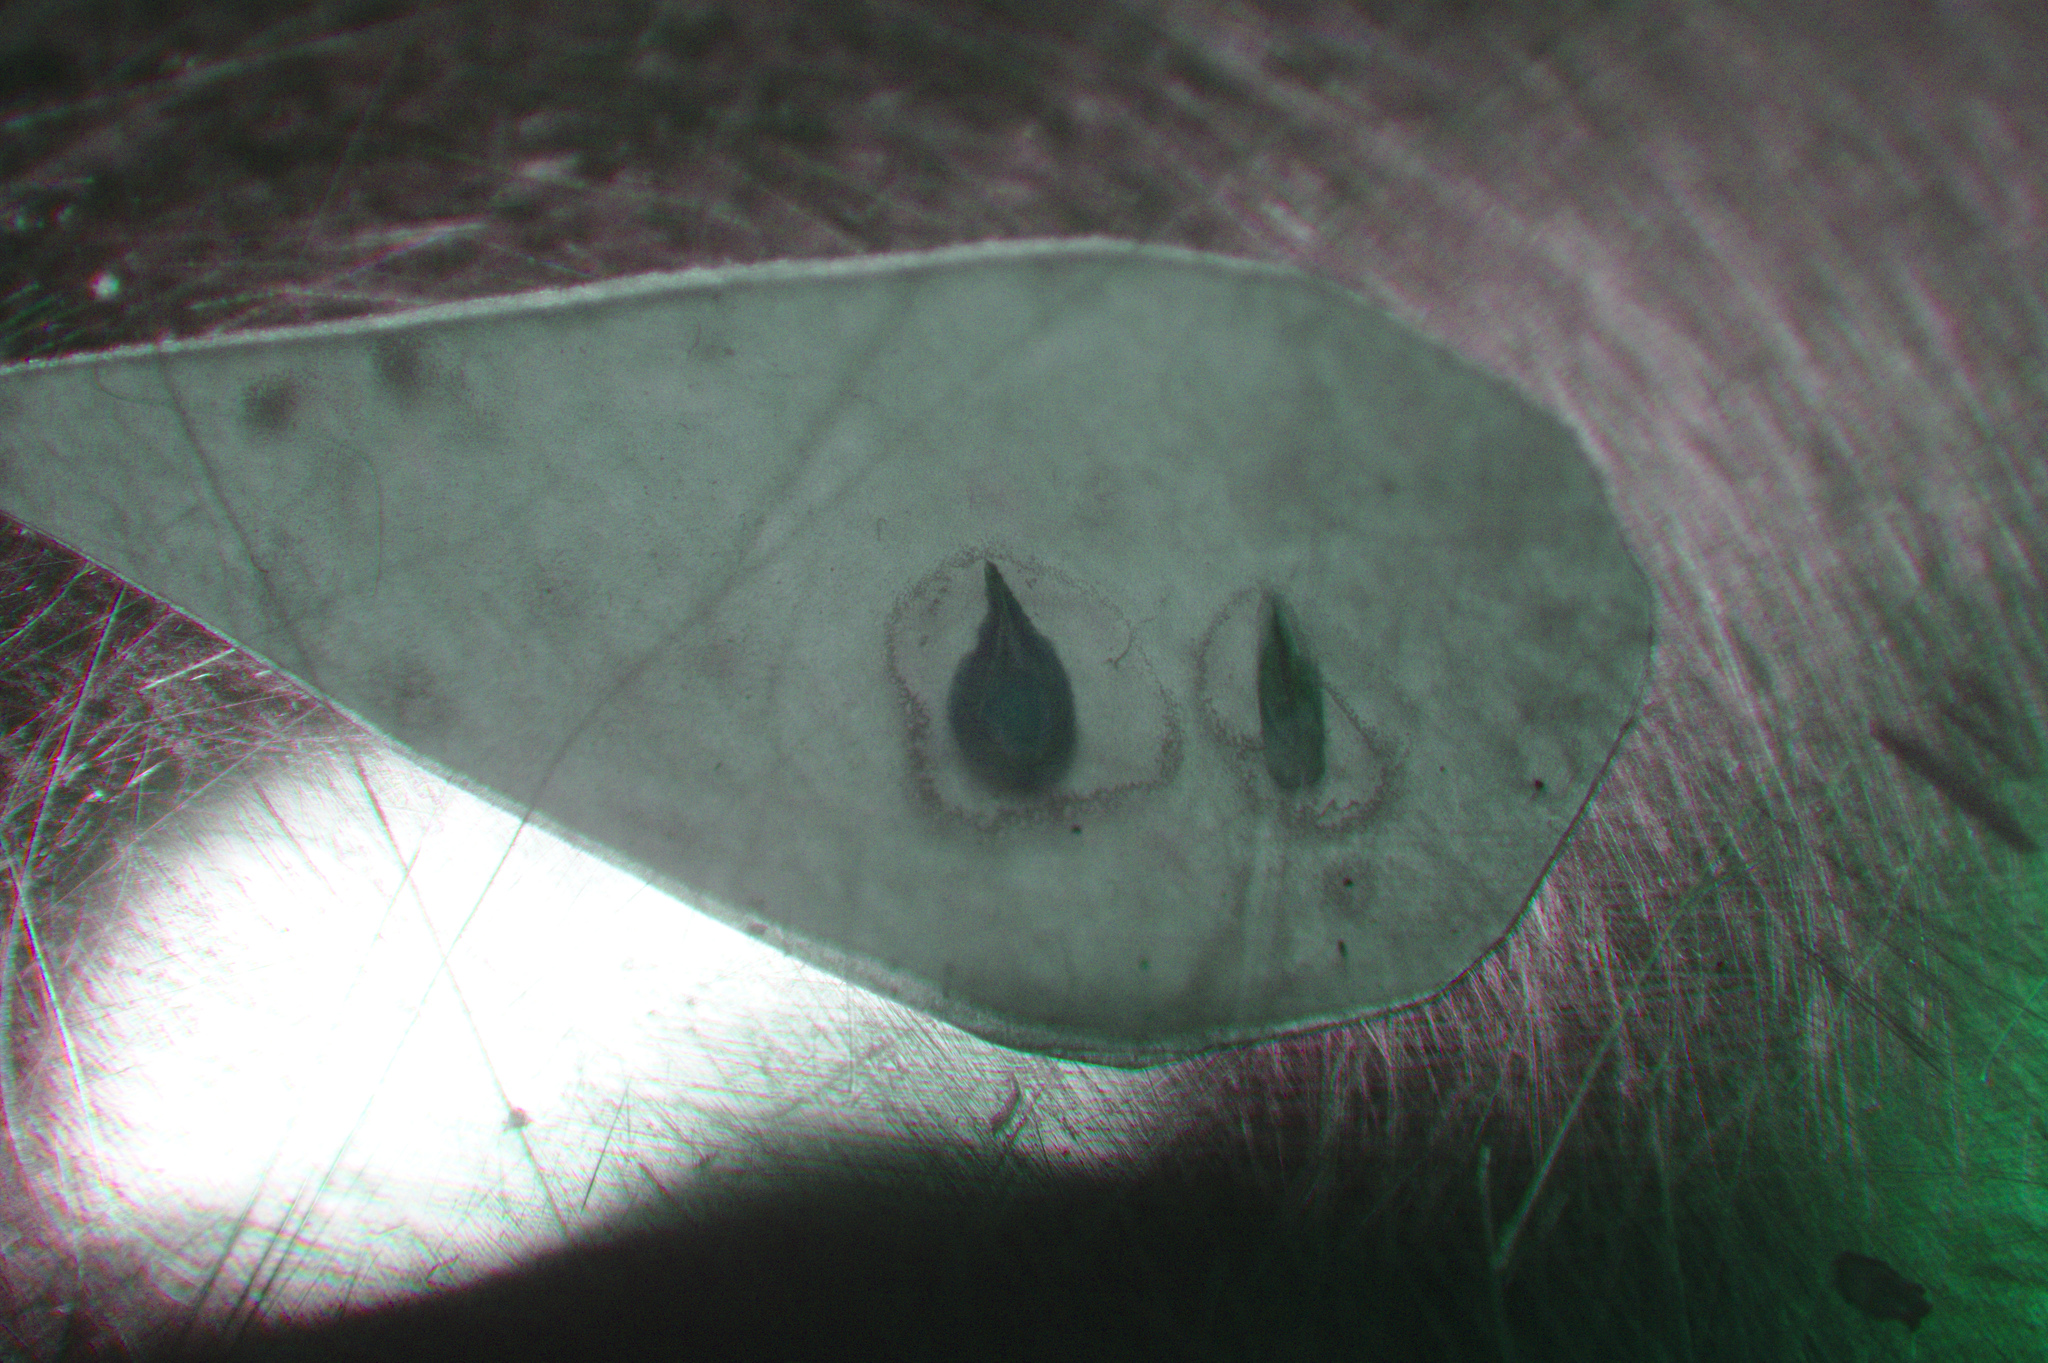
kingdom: Plantae
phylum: Tracheophyta
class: Liliopsida
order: Poales
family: Cyperaceae
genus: Carex
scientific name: Carex tenera
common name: Broad-fruited sedge
